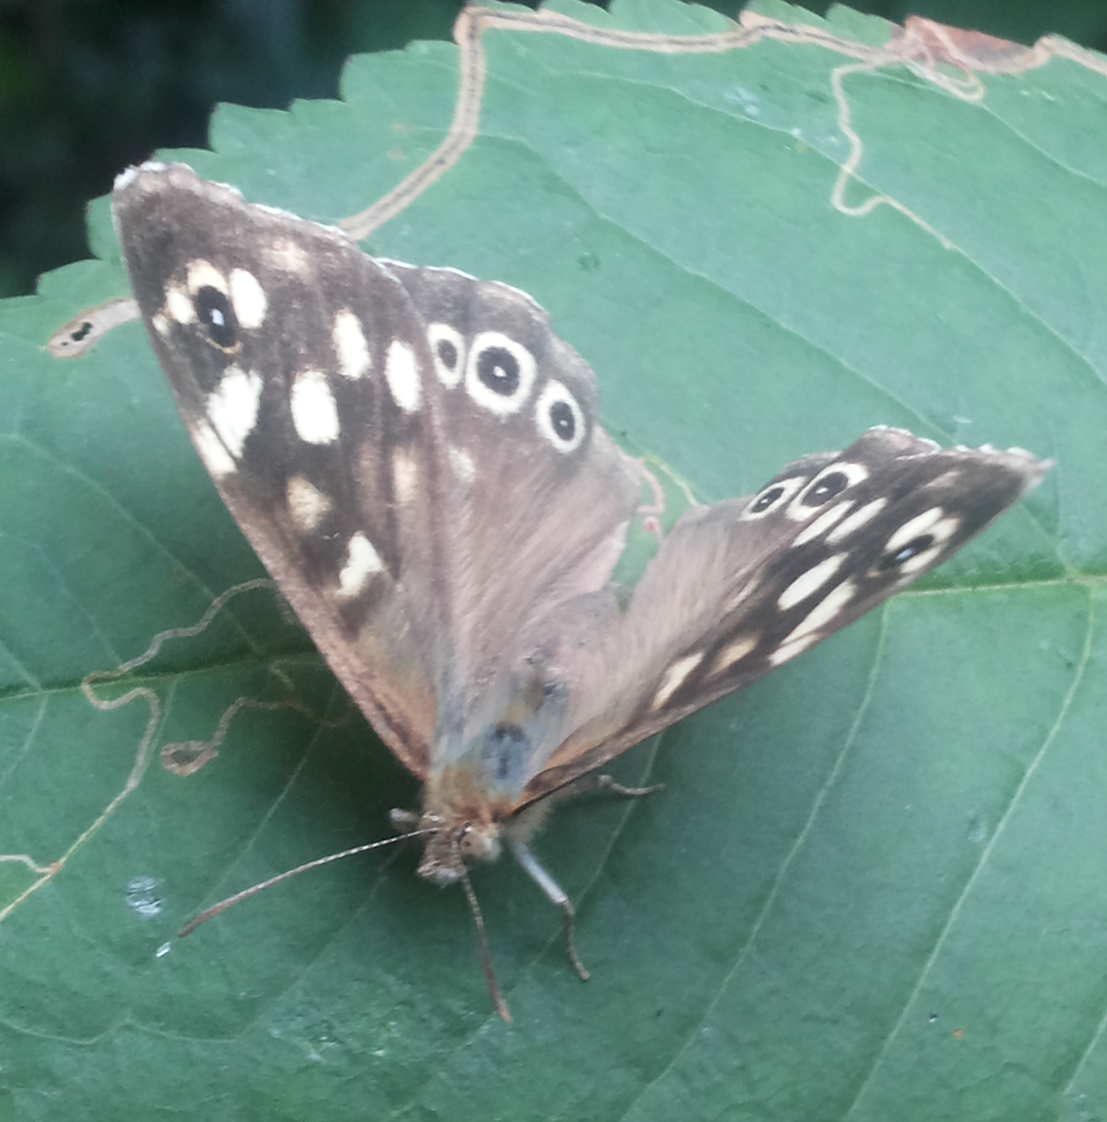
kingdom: Animalia
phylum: Arthropoda
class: Insecta
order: Lepidoptera
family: Nymphalidae
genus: Pararge
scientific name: Pararge aegeria
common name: Speckled wood
